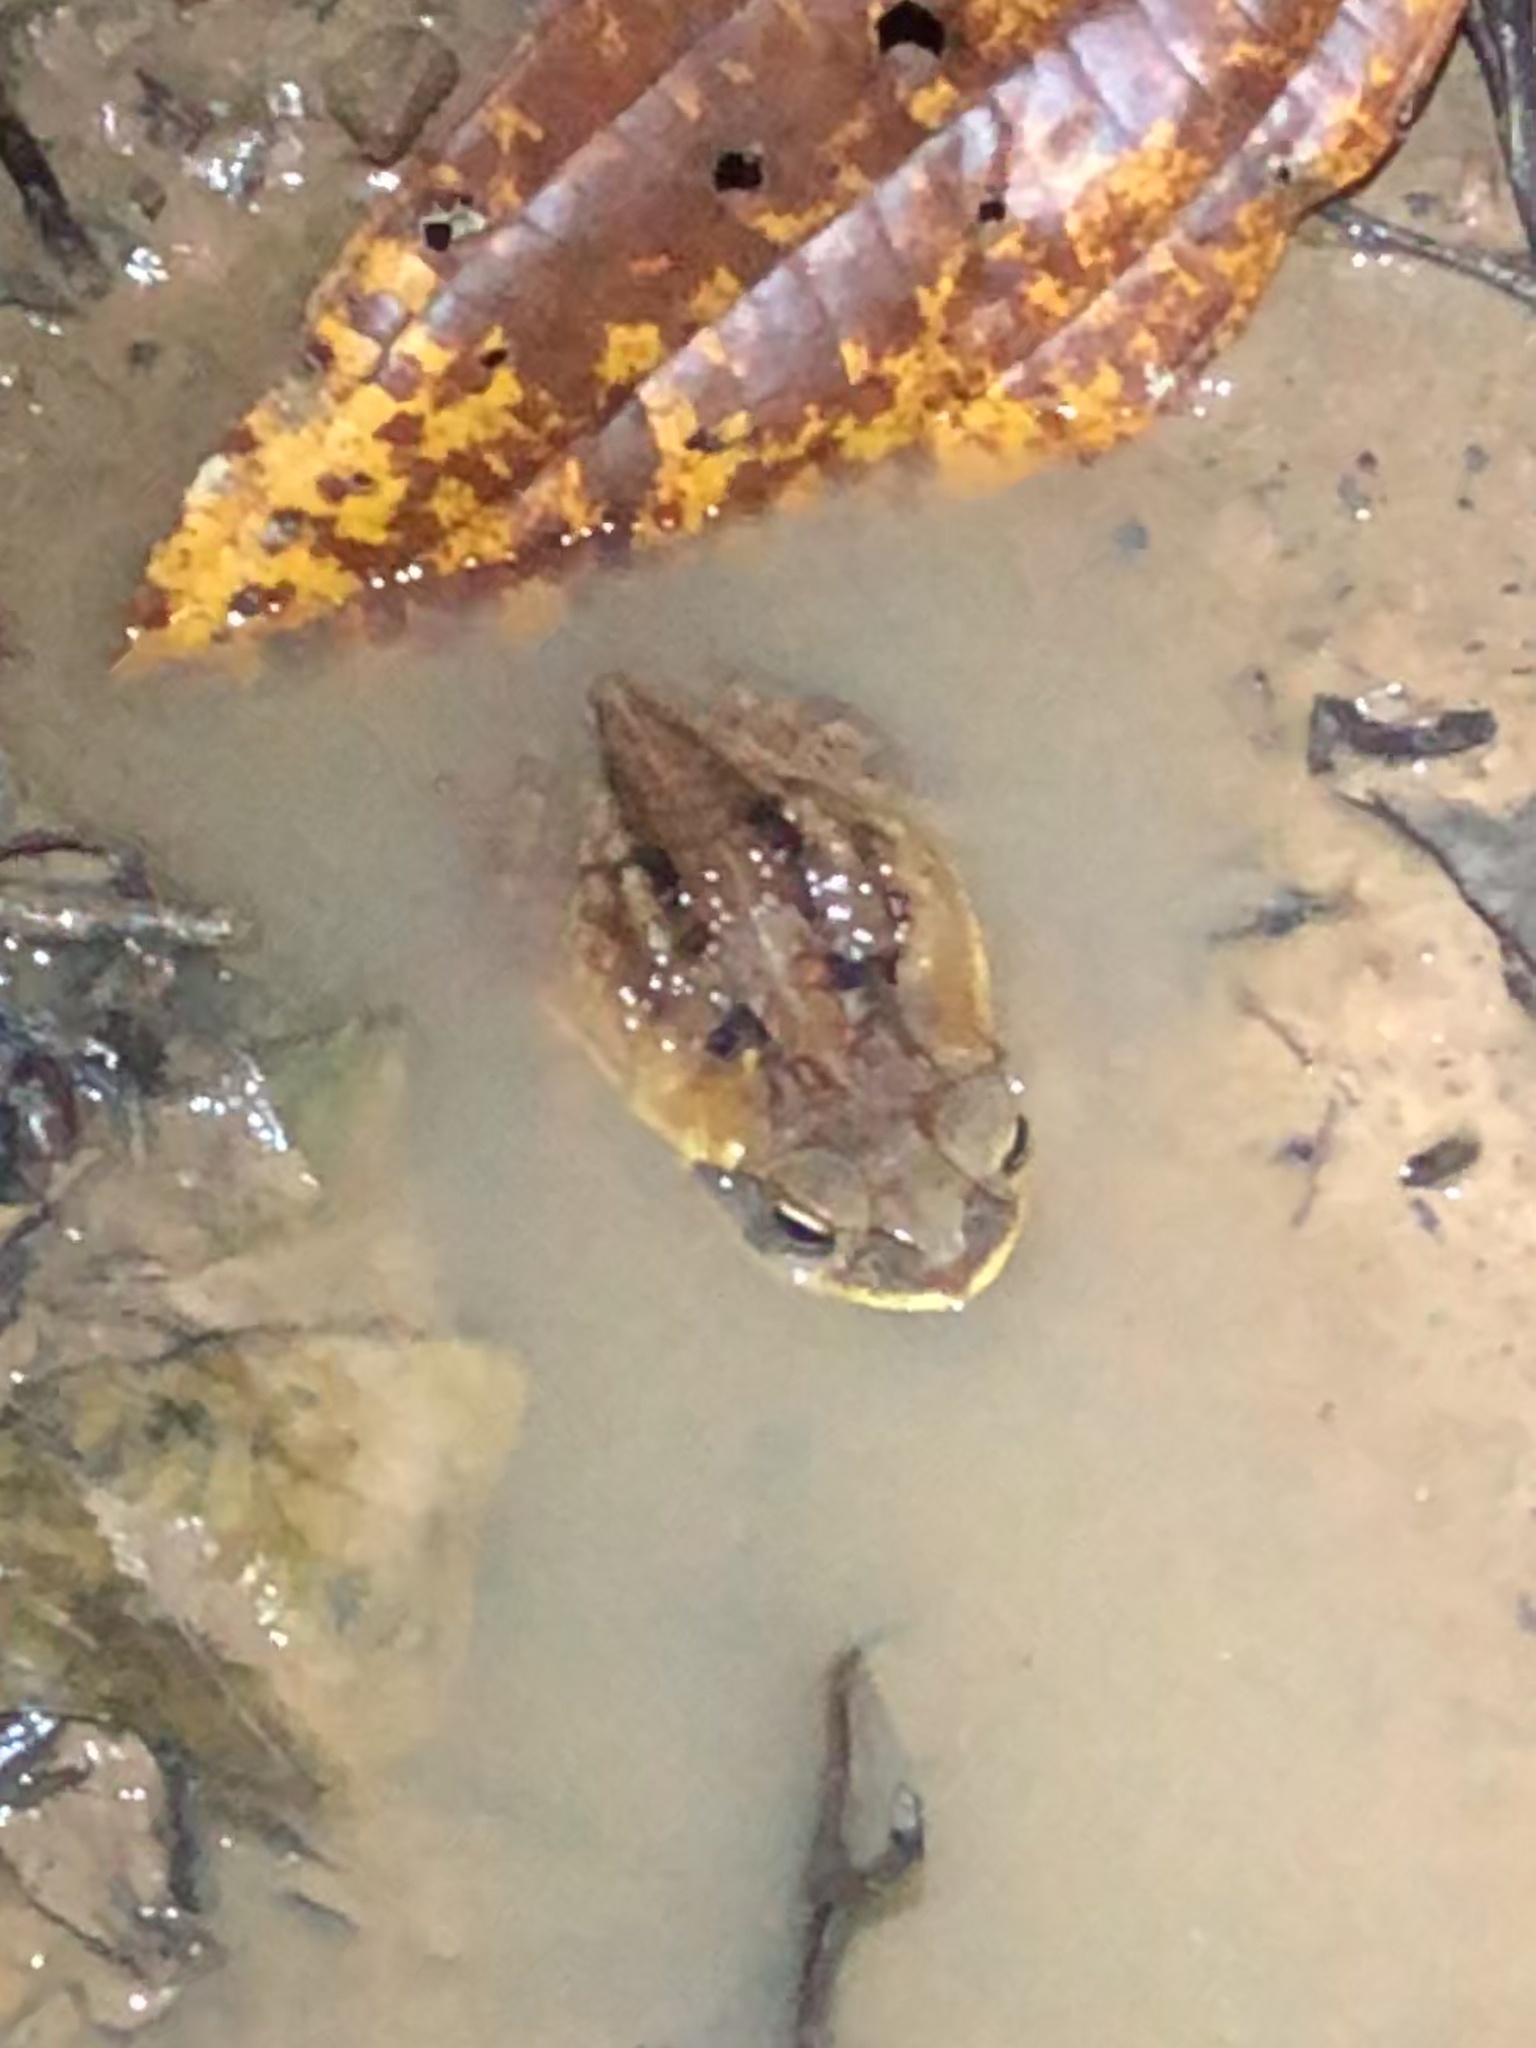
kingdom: Animalia
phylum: Chordata
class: Amphibia
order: Anura
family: Bufonidae
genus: Rhinella
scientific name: Rhinella marina
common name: Cane toad
